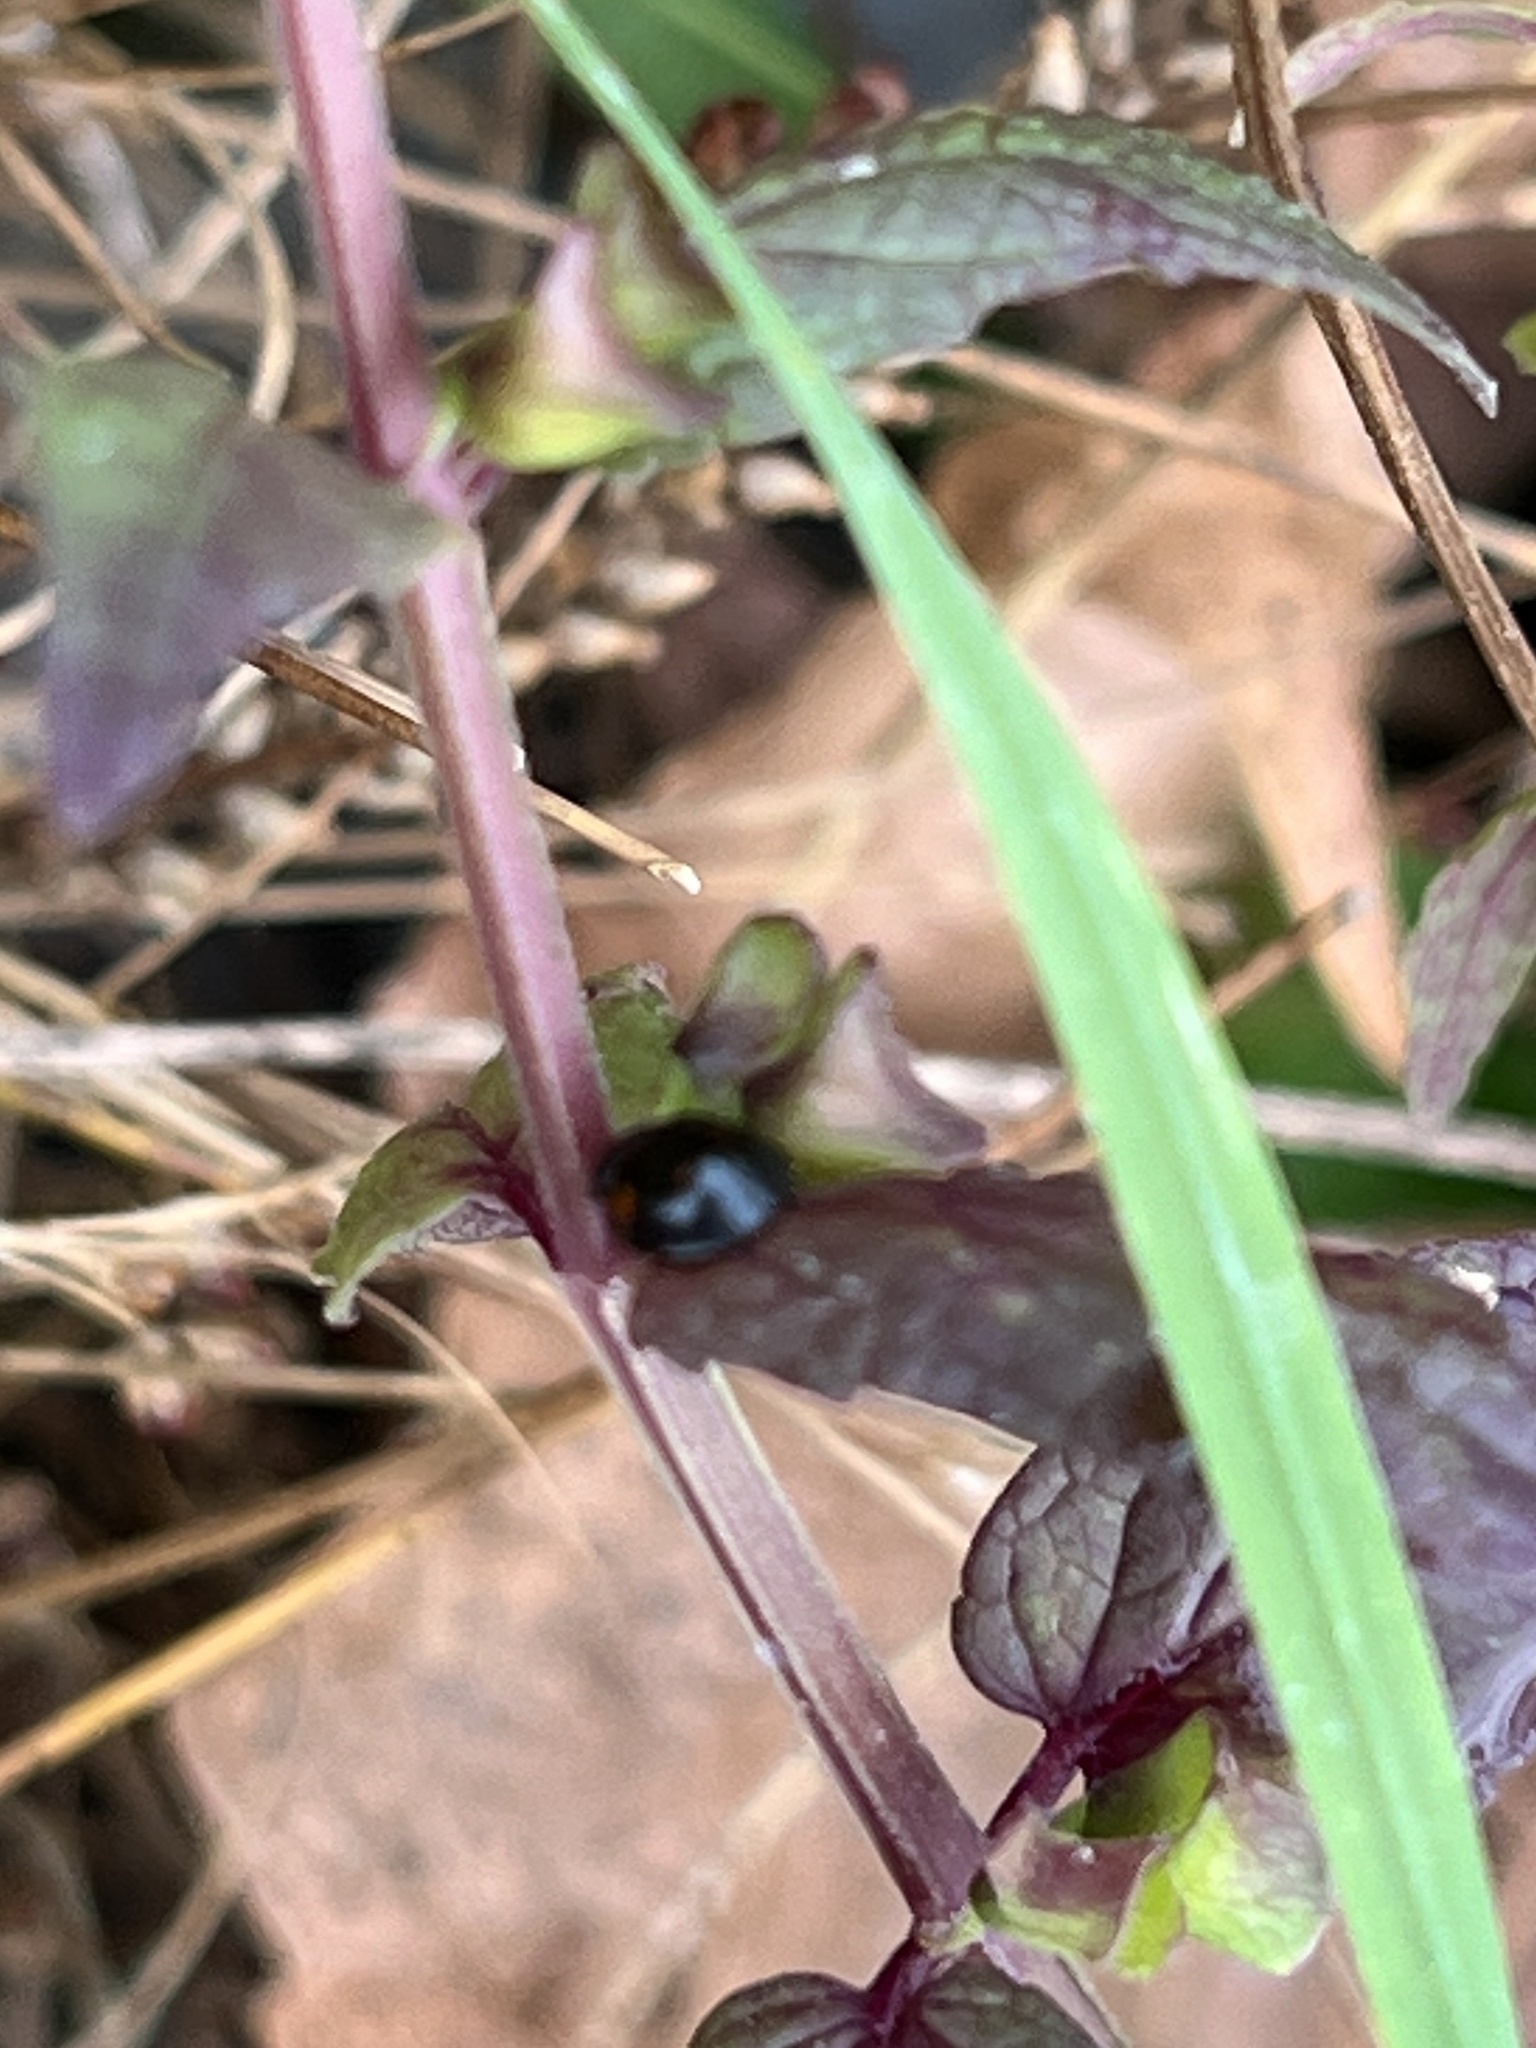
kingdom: Plantae
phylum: Tracheophyta
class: Magnoliopsida
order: Lamiales
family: Lamiaceae
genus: Scutellaria
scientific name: Scutellaria galericulata
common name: Skullcap
